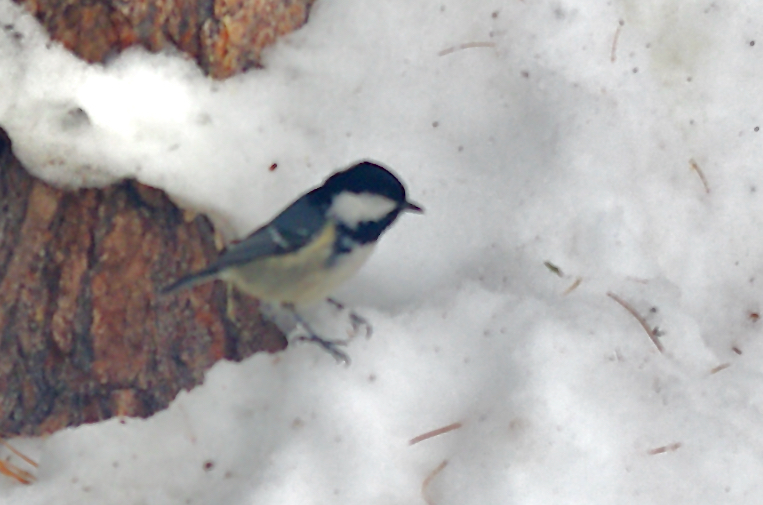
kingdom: Animalia
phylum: Chordata
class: Aves
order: Passeriformes
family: Paridae
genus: Periparus
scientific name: Periparus ater
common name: Coal tit
